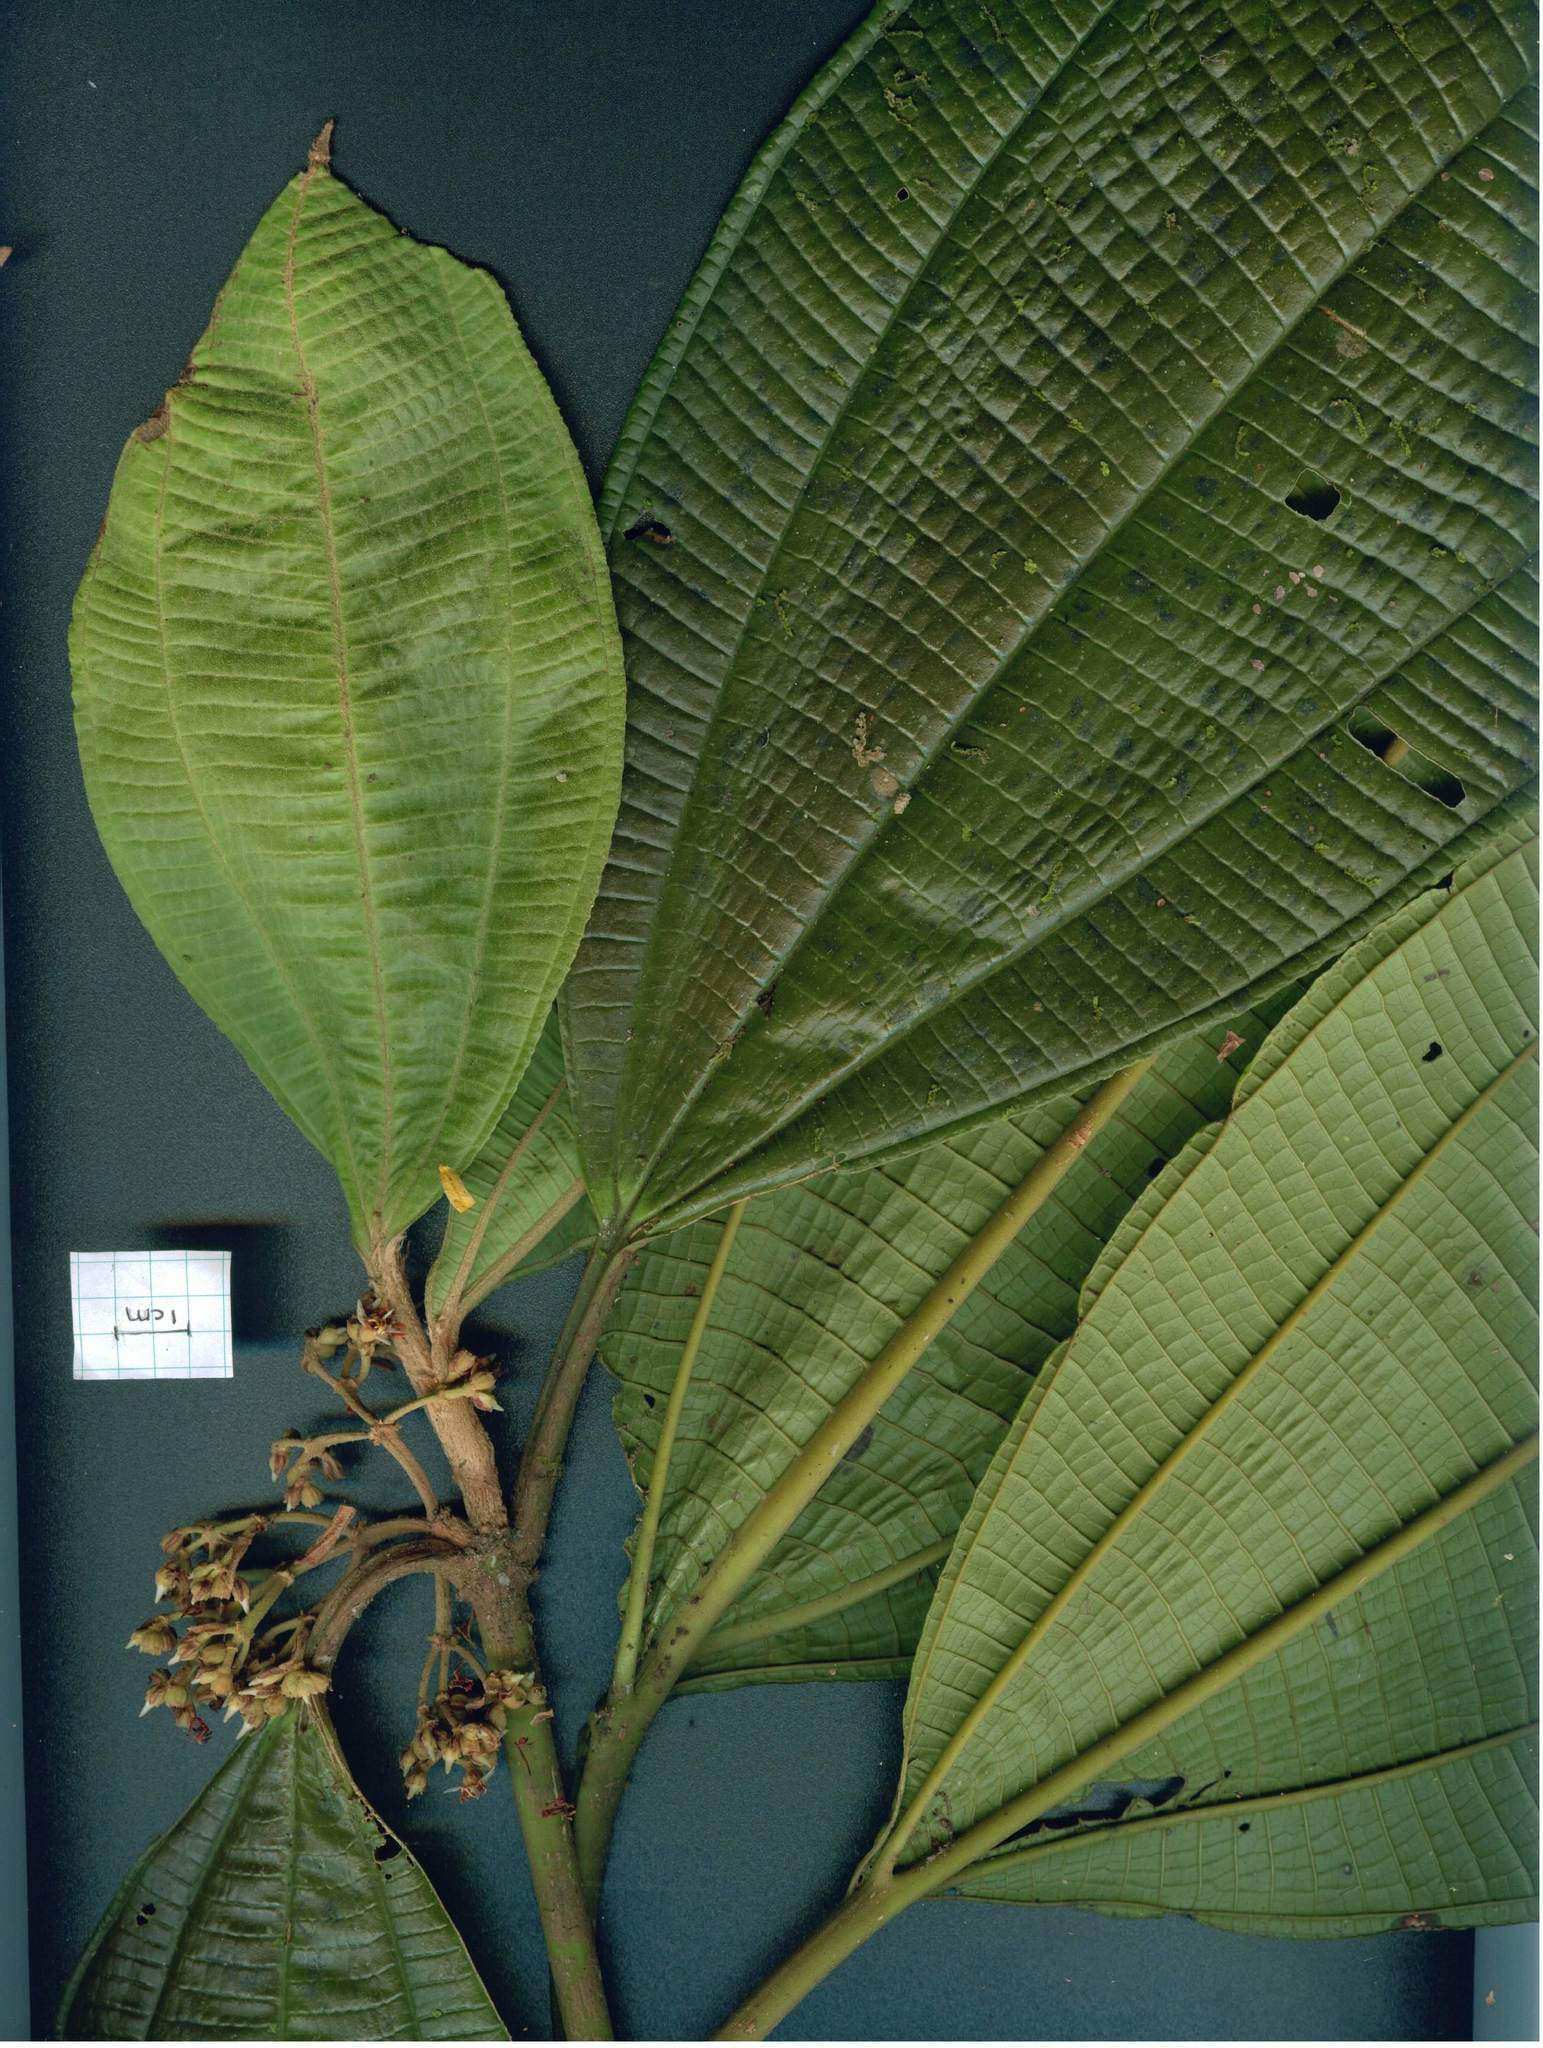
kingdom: Plantae
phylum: Tracheophyta
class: Magnoliopsida
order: Myrtales
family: Melastomataceae
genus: Miconia
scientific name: Miconia magnifolia
